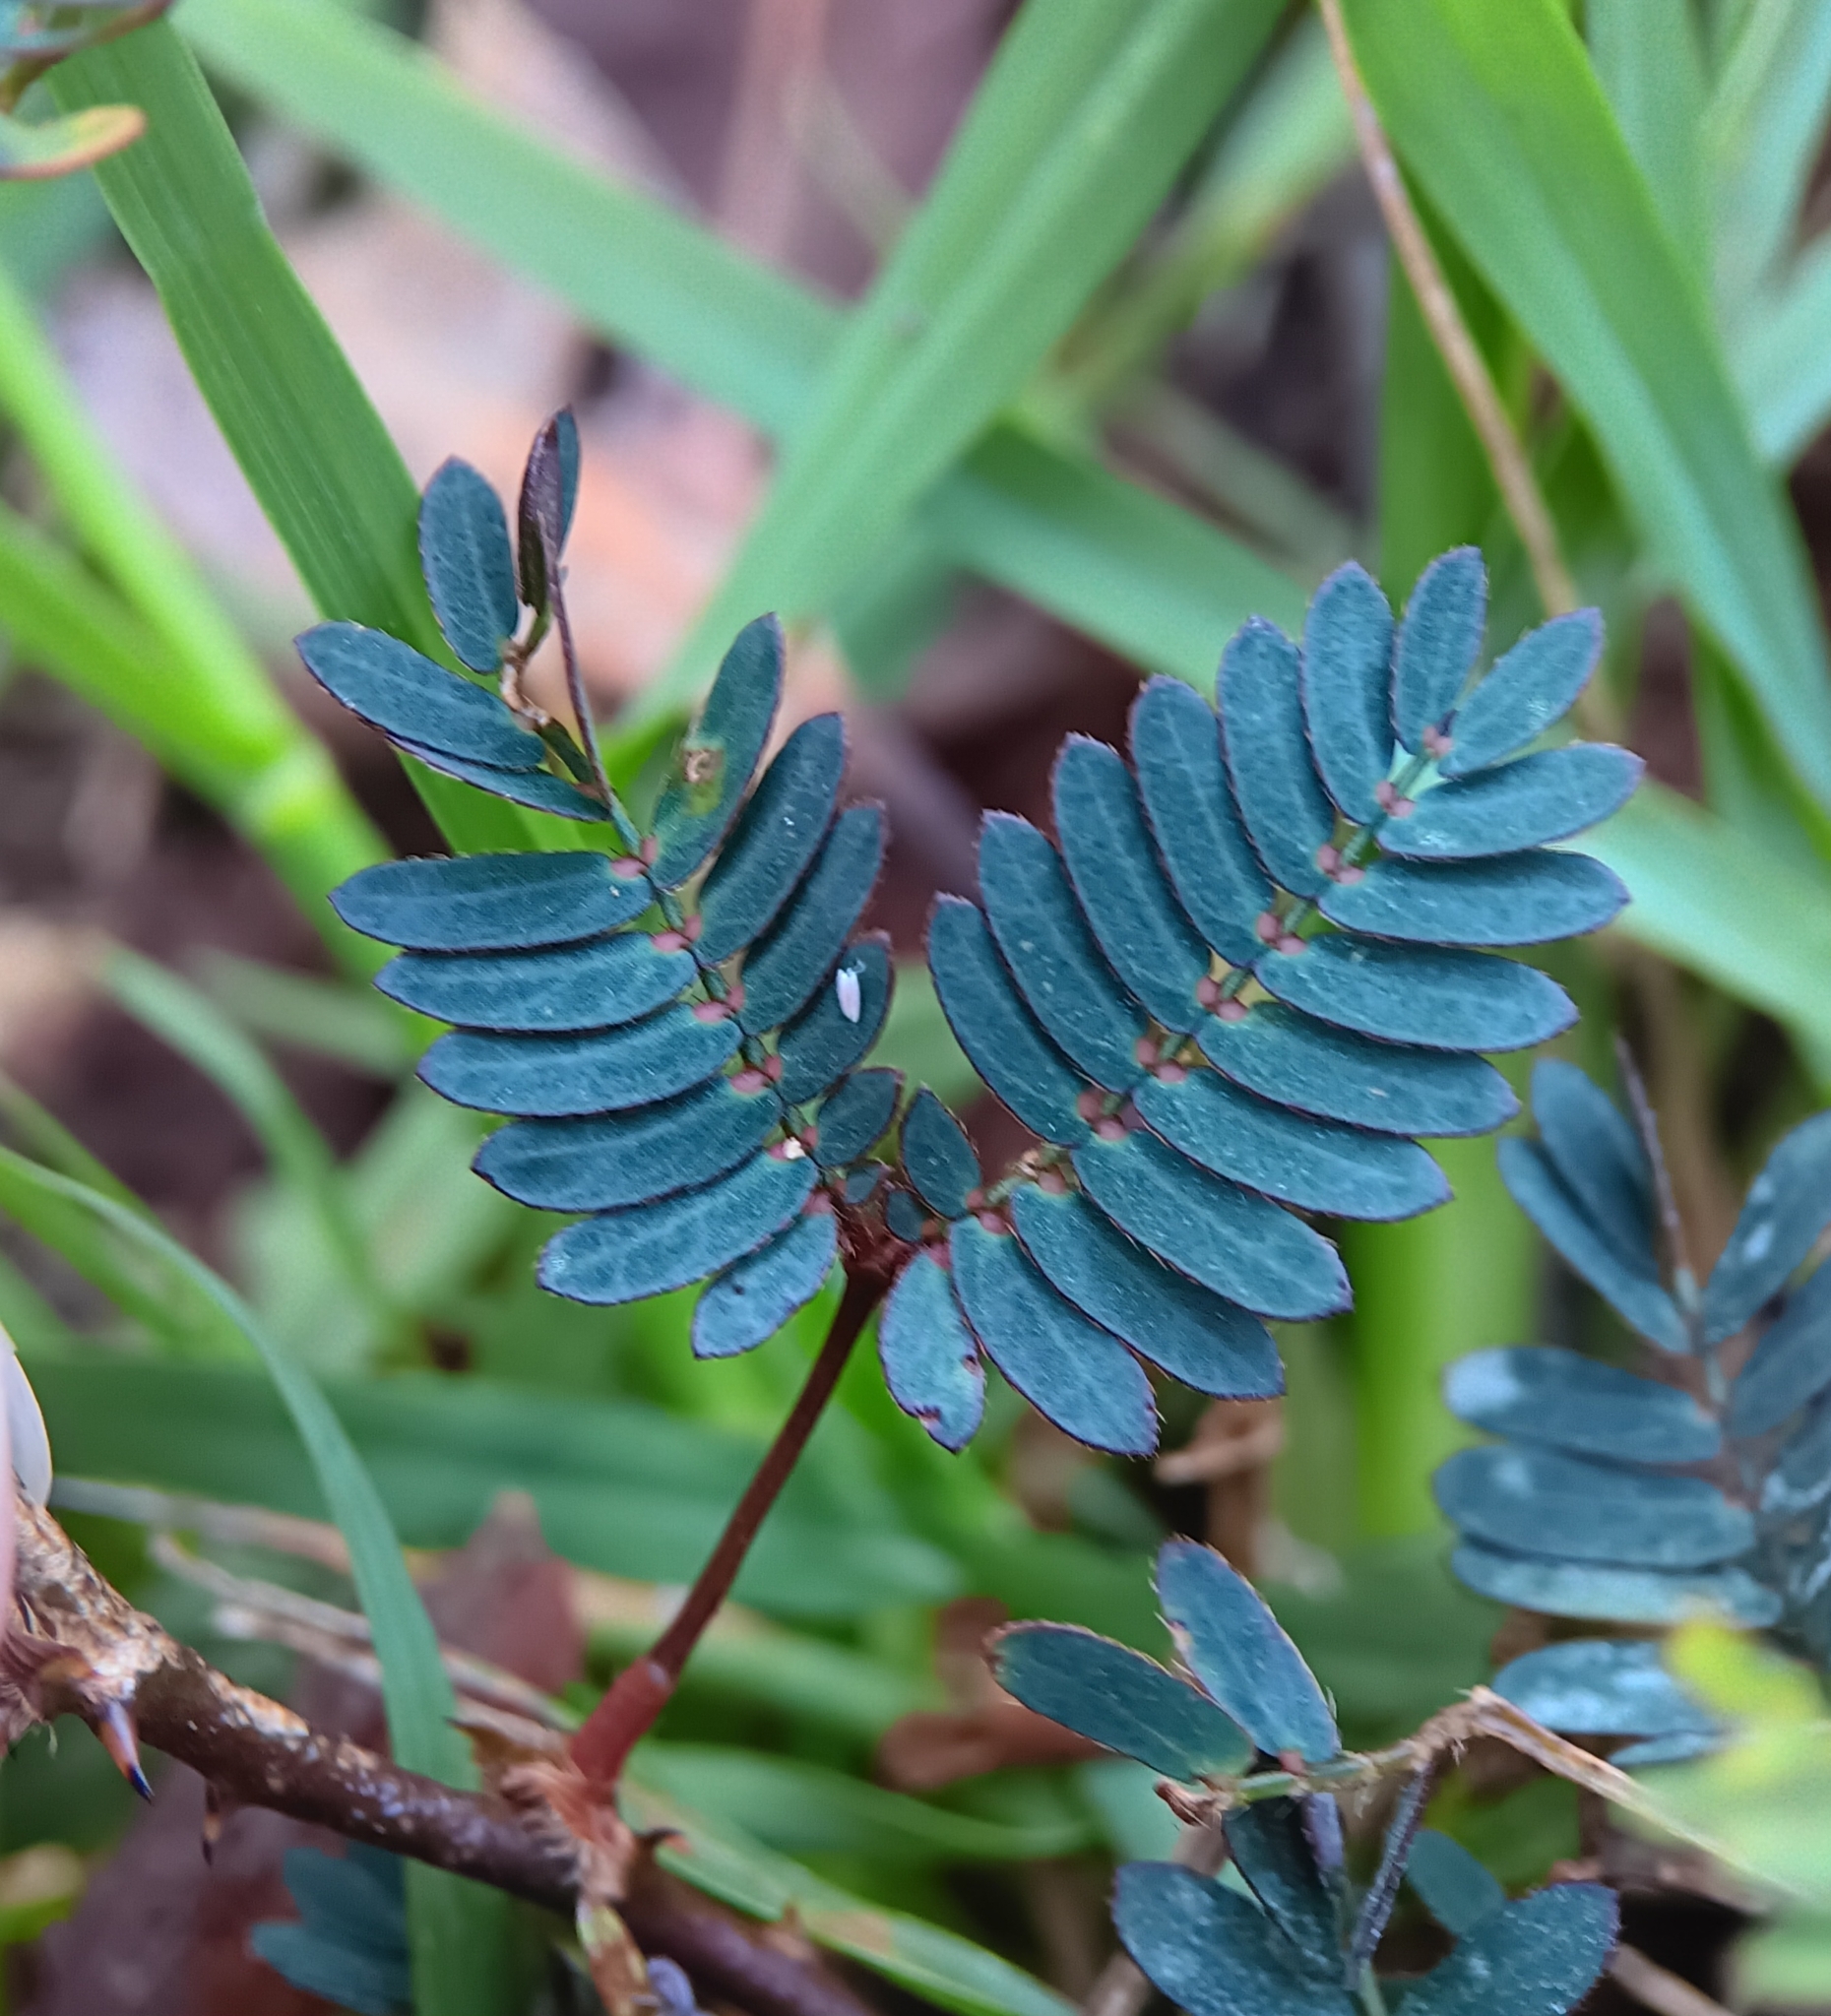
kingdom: Plantae
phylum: Tracheophyta
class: Magnoliopsida
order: Fabales
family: Fabaceae
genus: Mimosa
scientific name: Mimosa pudica
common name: Sensitive plant
